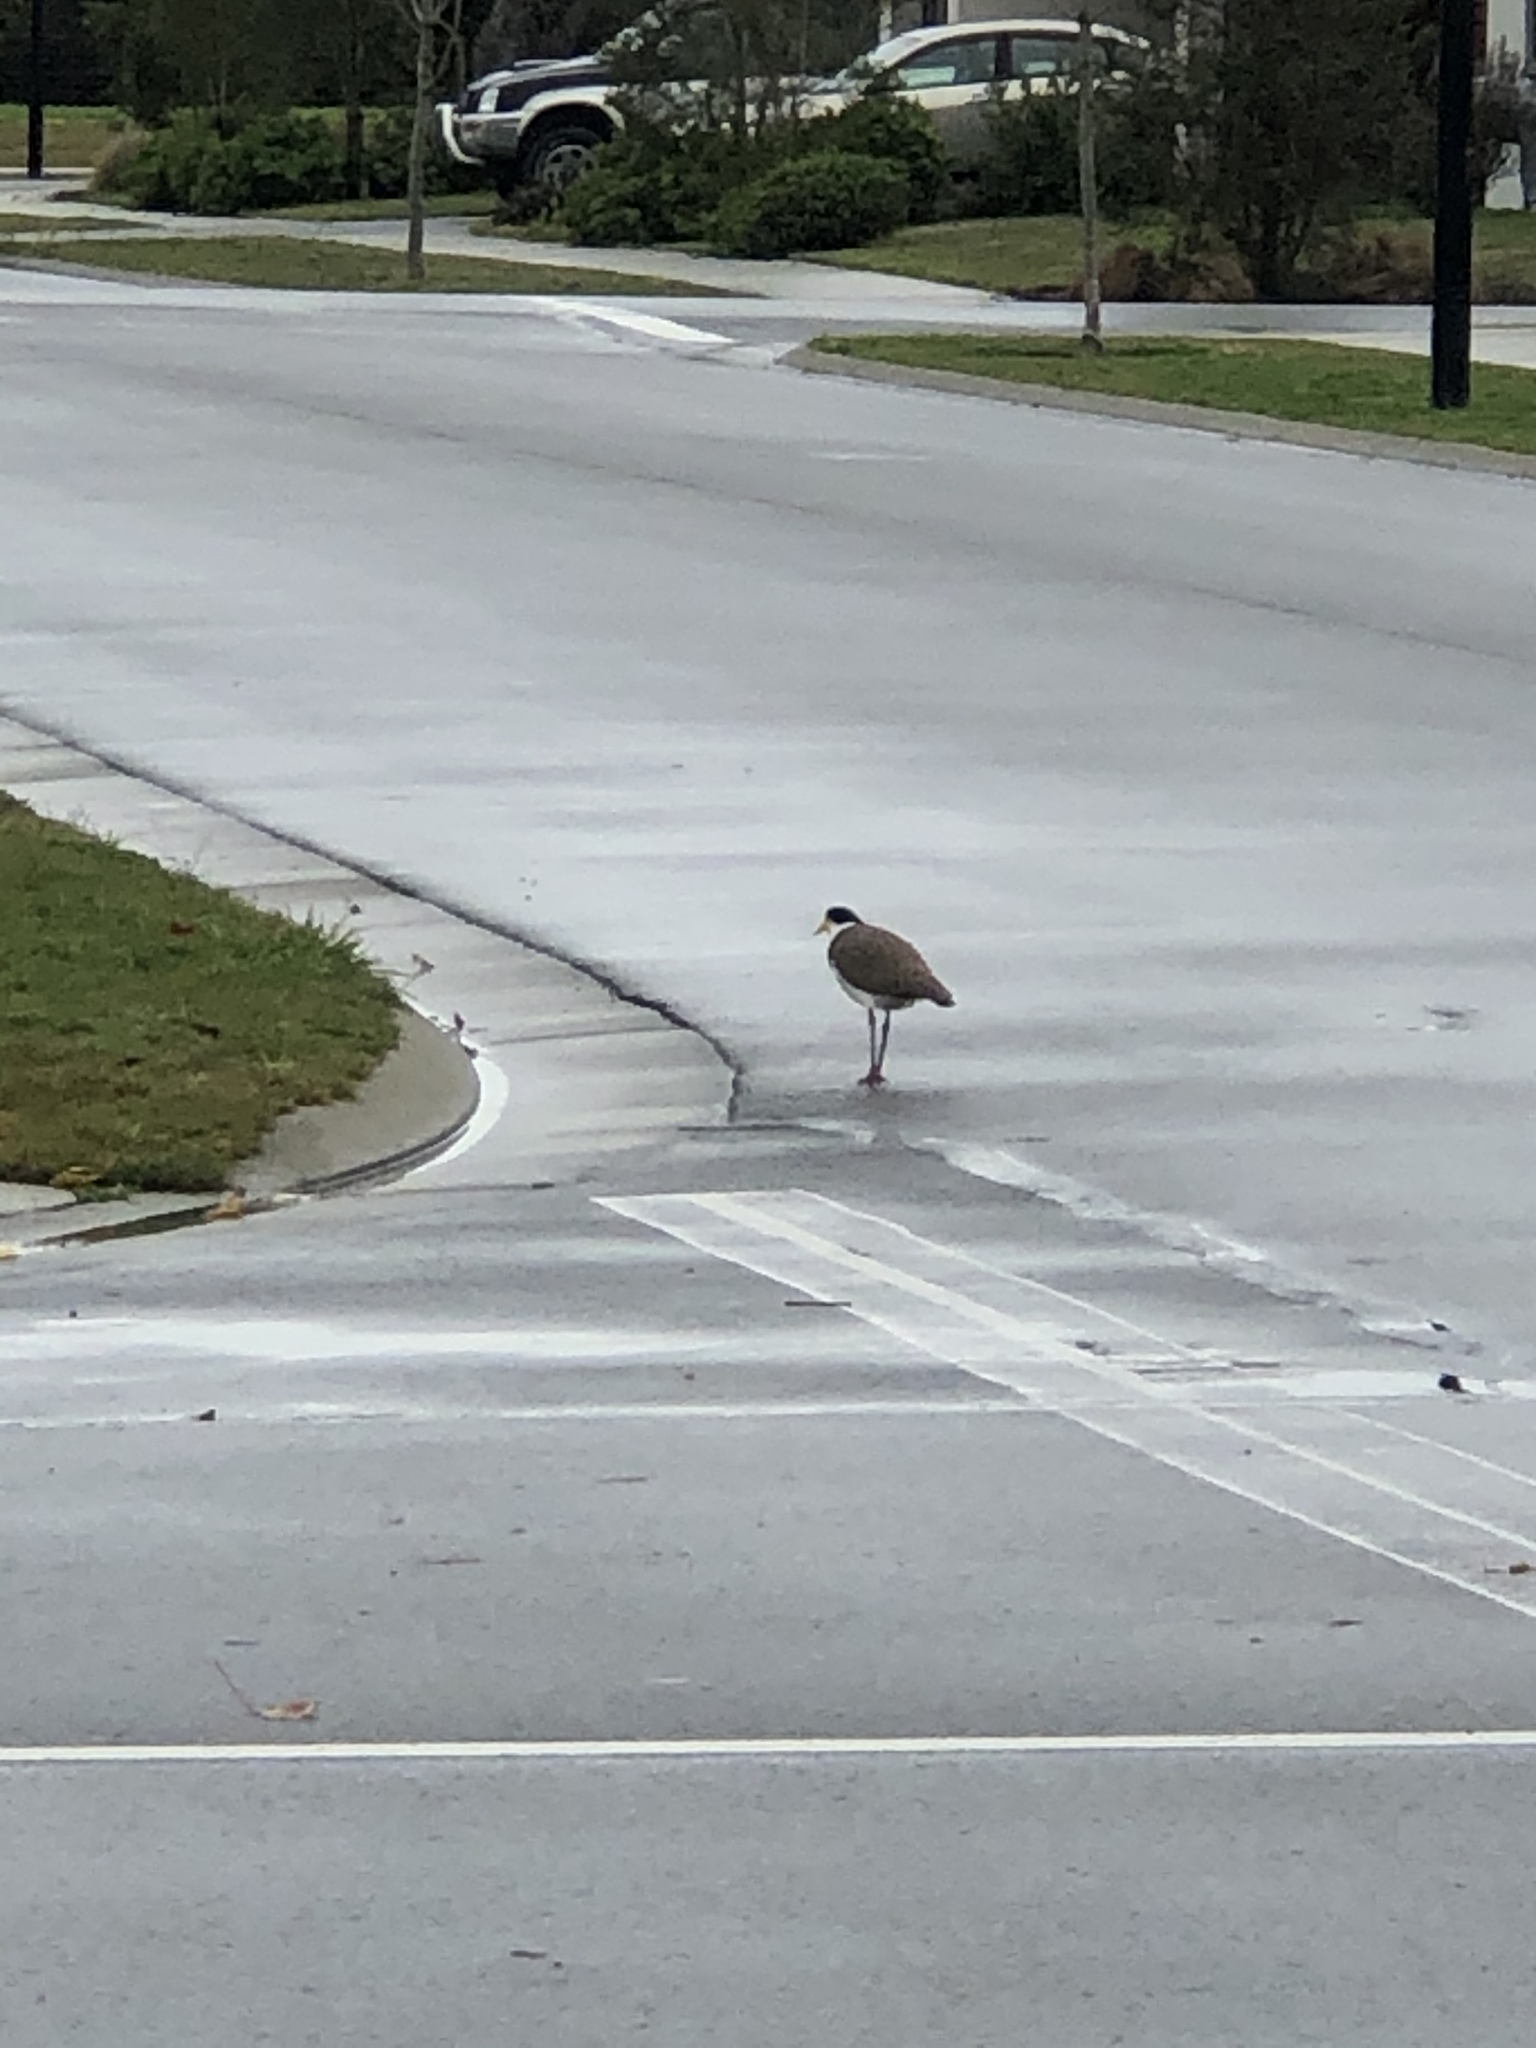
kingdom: Animalia
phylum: Chordata
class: Aves
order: Charadriiformes
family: Charadriidae
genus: Vanellus
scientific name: Vanellus miles
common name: Masked lapwing
